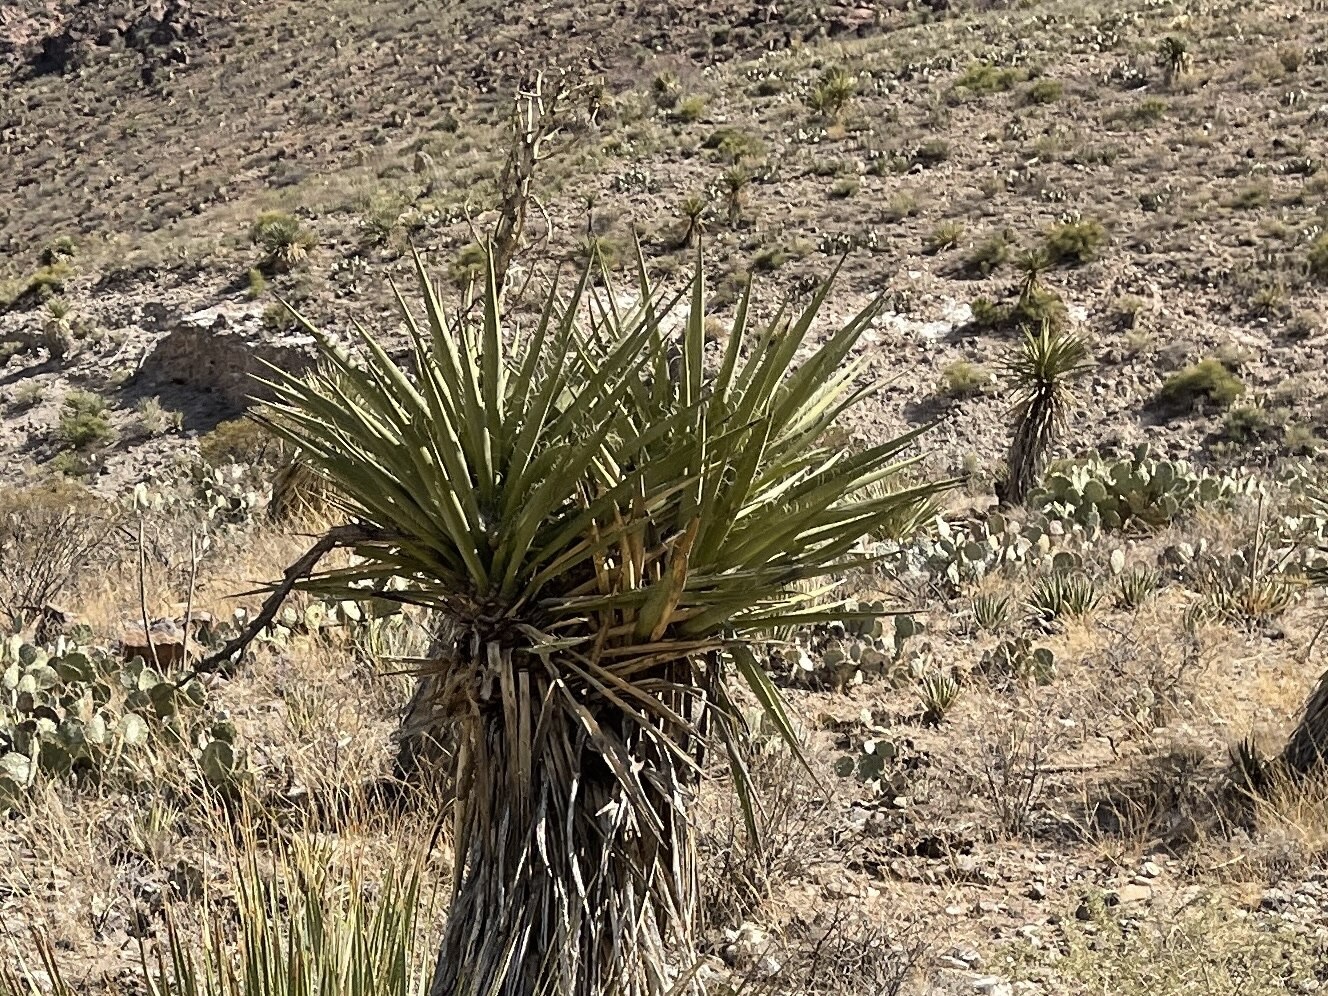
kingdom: Plantae
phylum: Tracheophyta
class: Liliopsida
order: Asparagales
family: Asparagaceae
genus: Yucca
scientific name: Yucca treculiana
